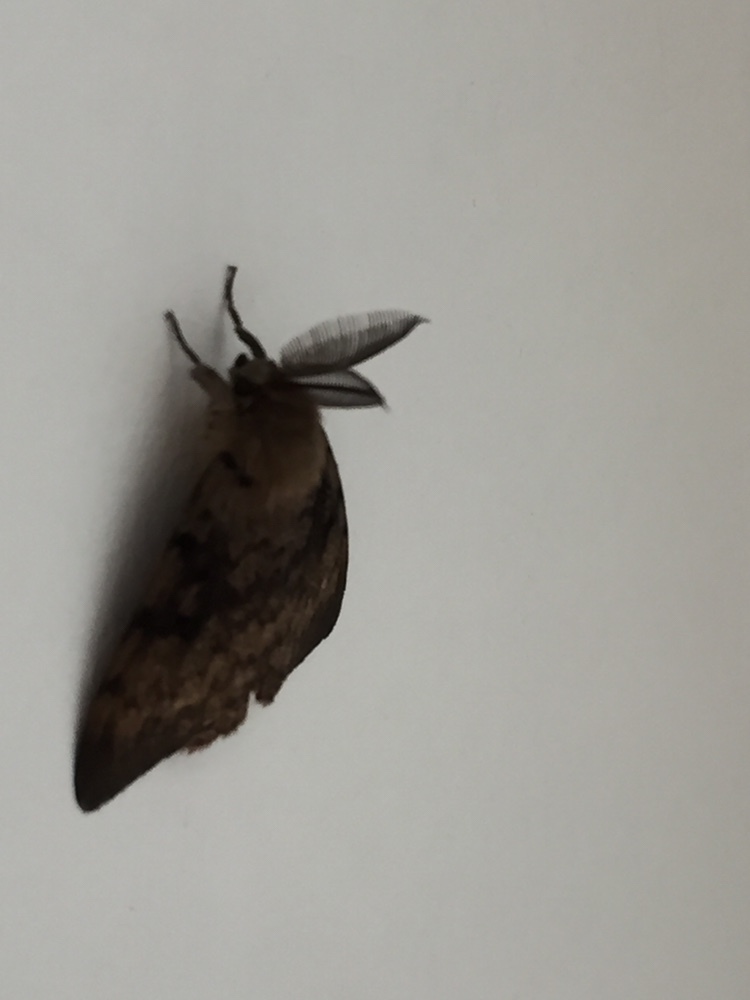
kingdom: Animalia
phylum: Arthropoda
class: Insecta
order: Lepidoptera
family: Erebidae
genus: Lymantria
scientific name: Lymantria dispar
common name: Gypsy moth
